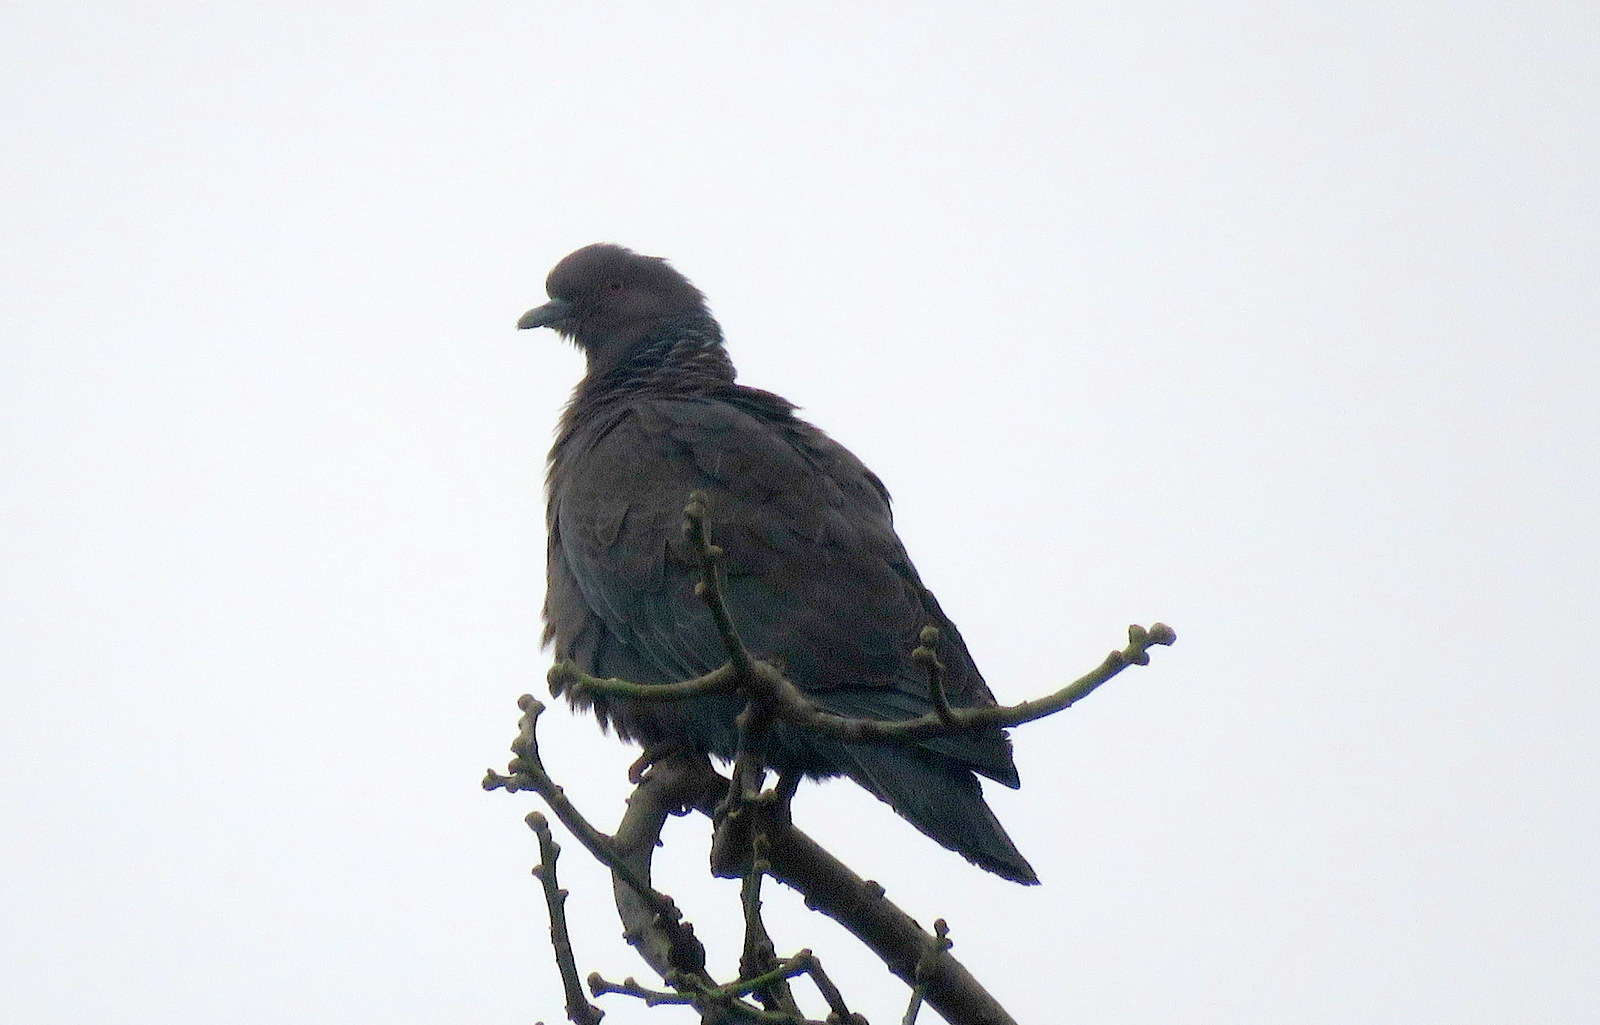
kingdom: Animalia
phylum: Chordata
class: Aves
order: Columbiformes
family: Columbidae
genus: Patagioenas
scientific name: Patagioenas picazuro
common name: Picazuro pigeon
